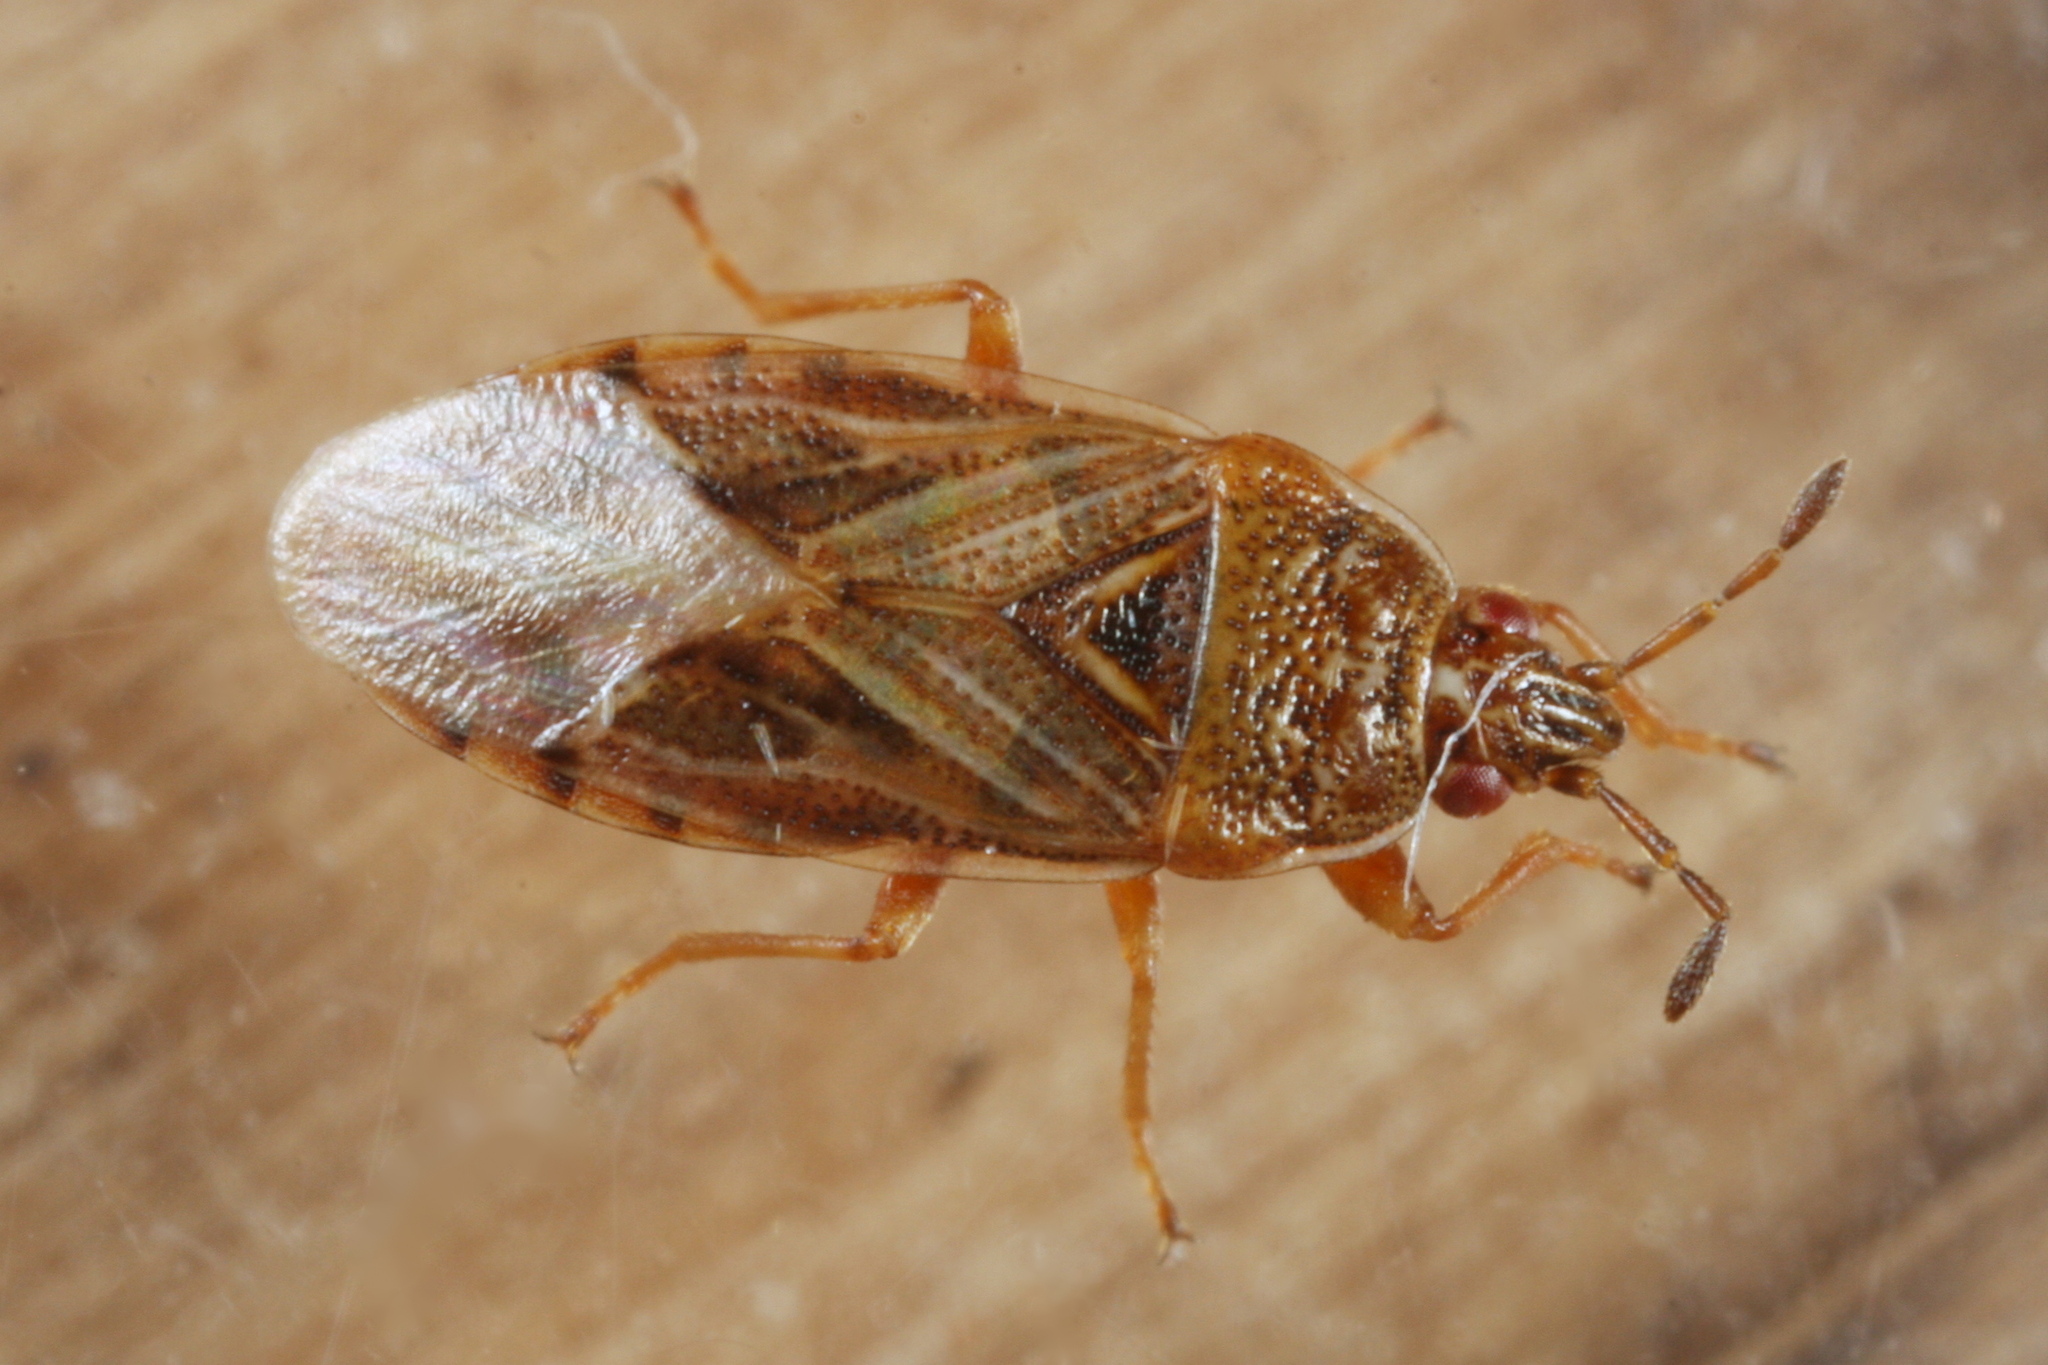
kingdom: Animalia
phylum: Arthropoda
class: Insecta
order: Hemiptera
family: Artheneidae
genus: Chilacis
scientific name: Chilacis typhae
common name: Cattail bug
